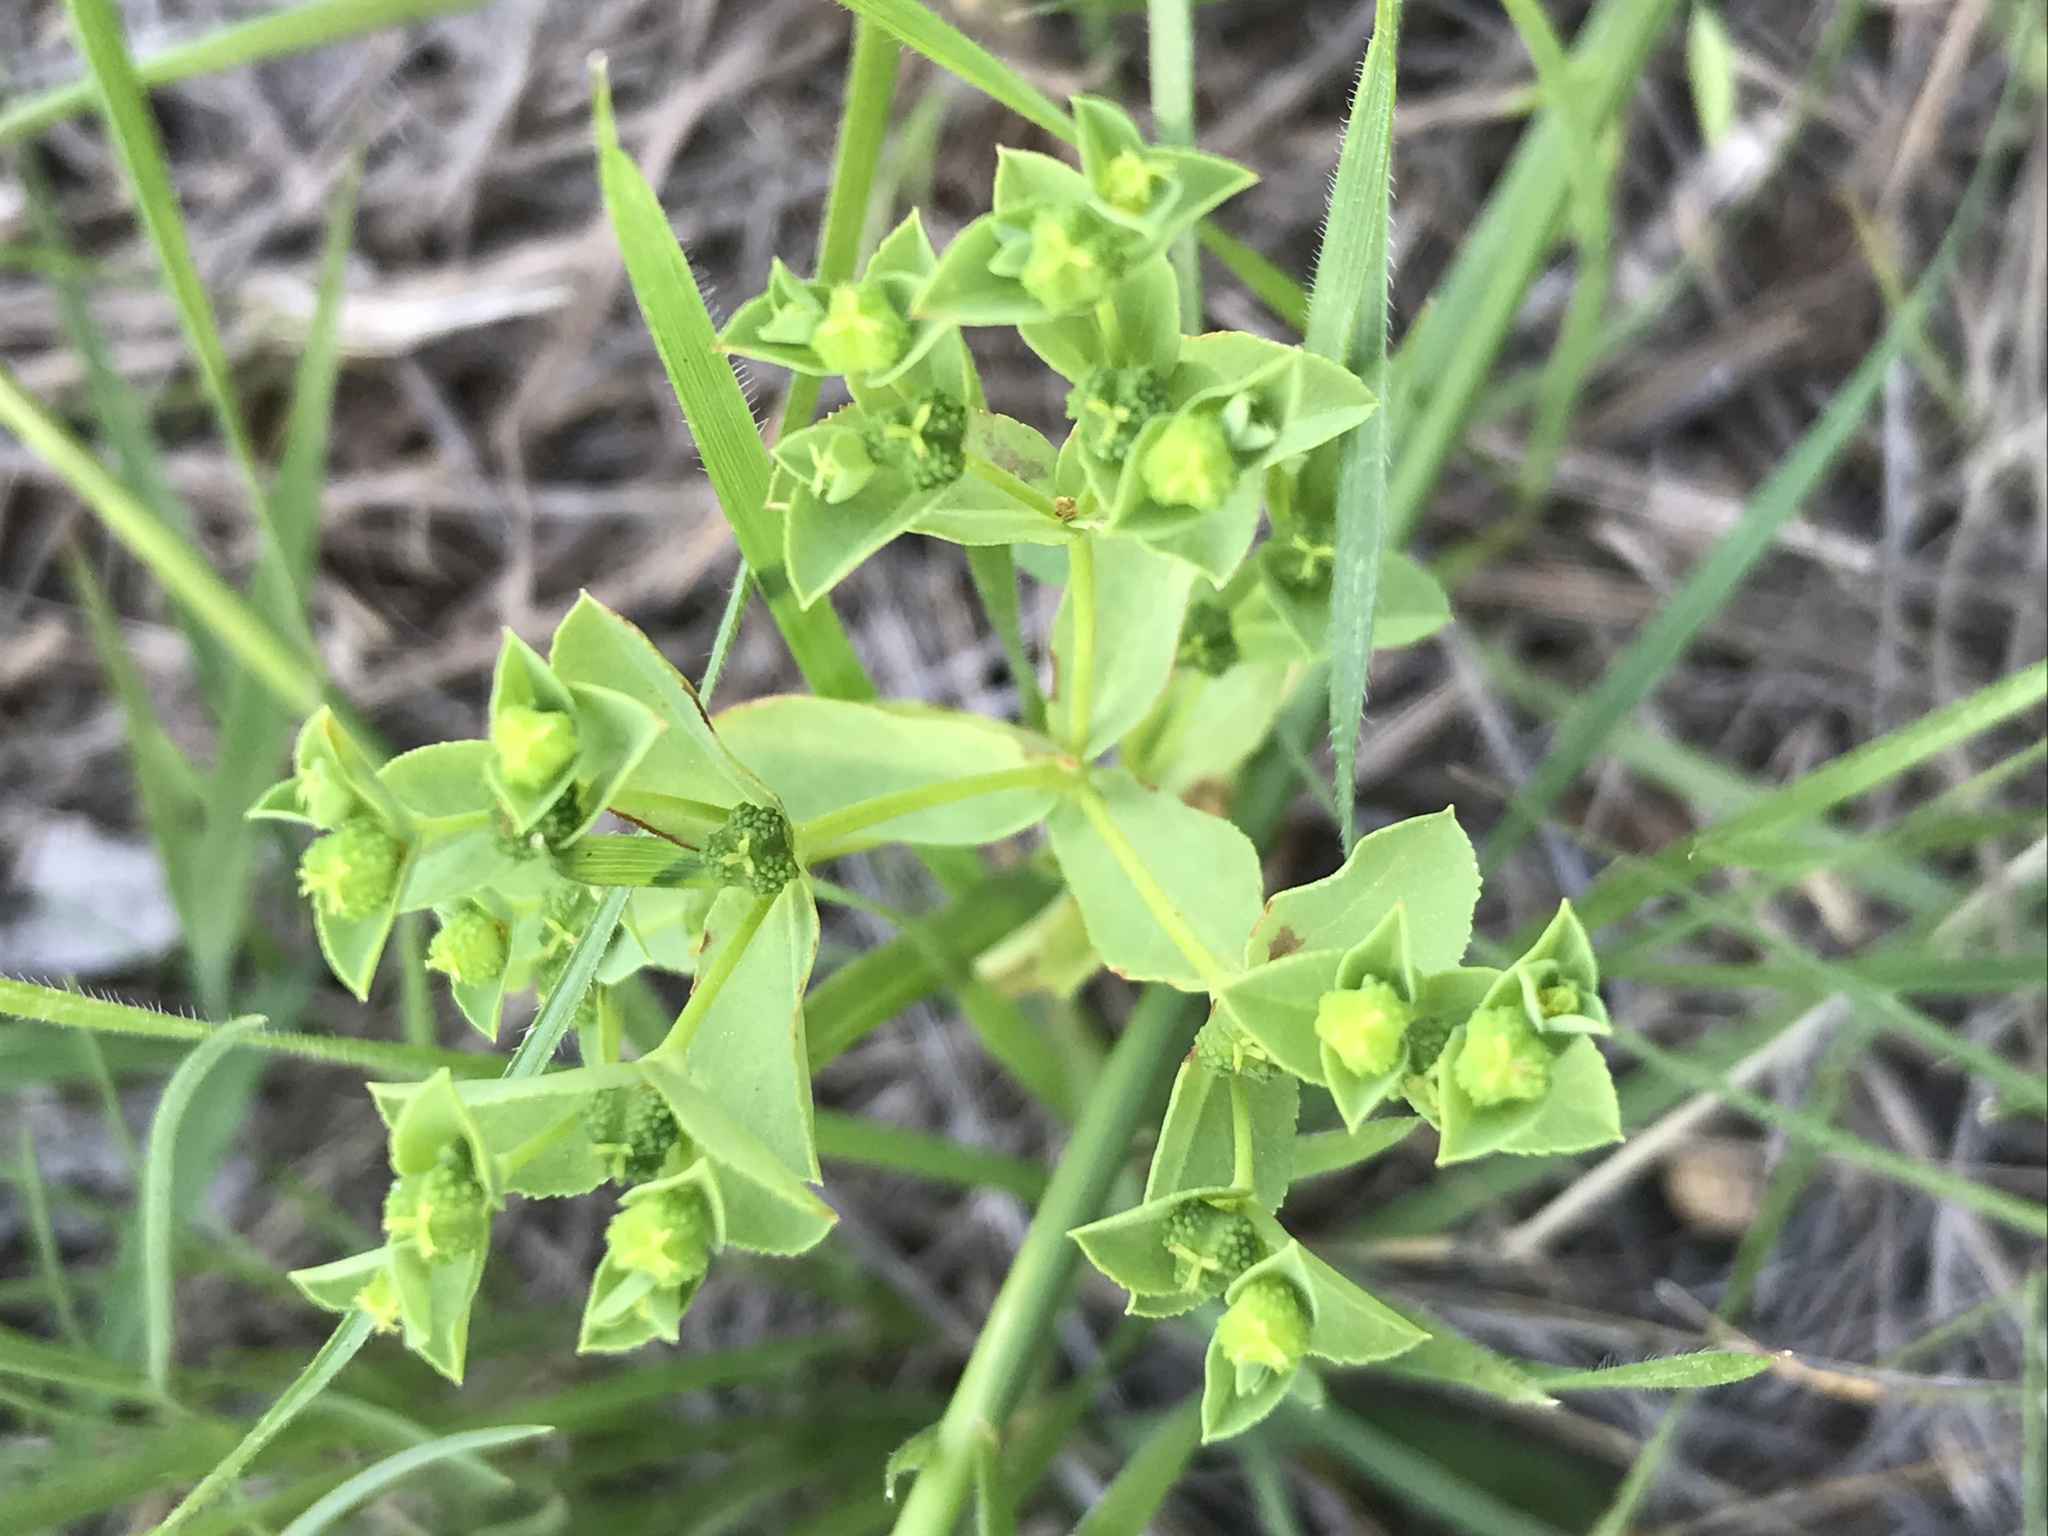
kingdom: Plantae
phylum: Tracheophyta
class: Magnoliopsida
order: Malpighiales
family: Euphorbiaceae
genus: Euphorbia
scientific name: Euphorbia spathulata
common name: Blunt spurge
